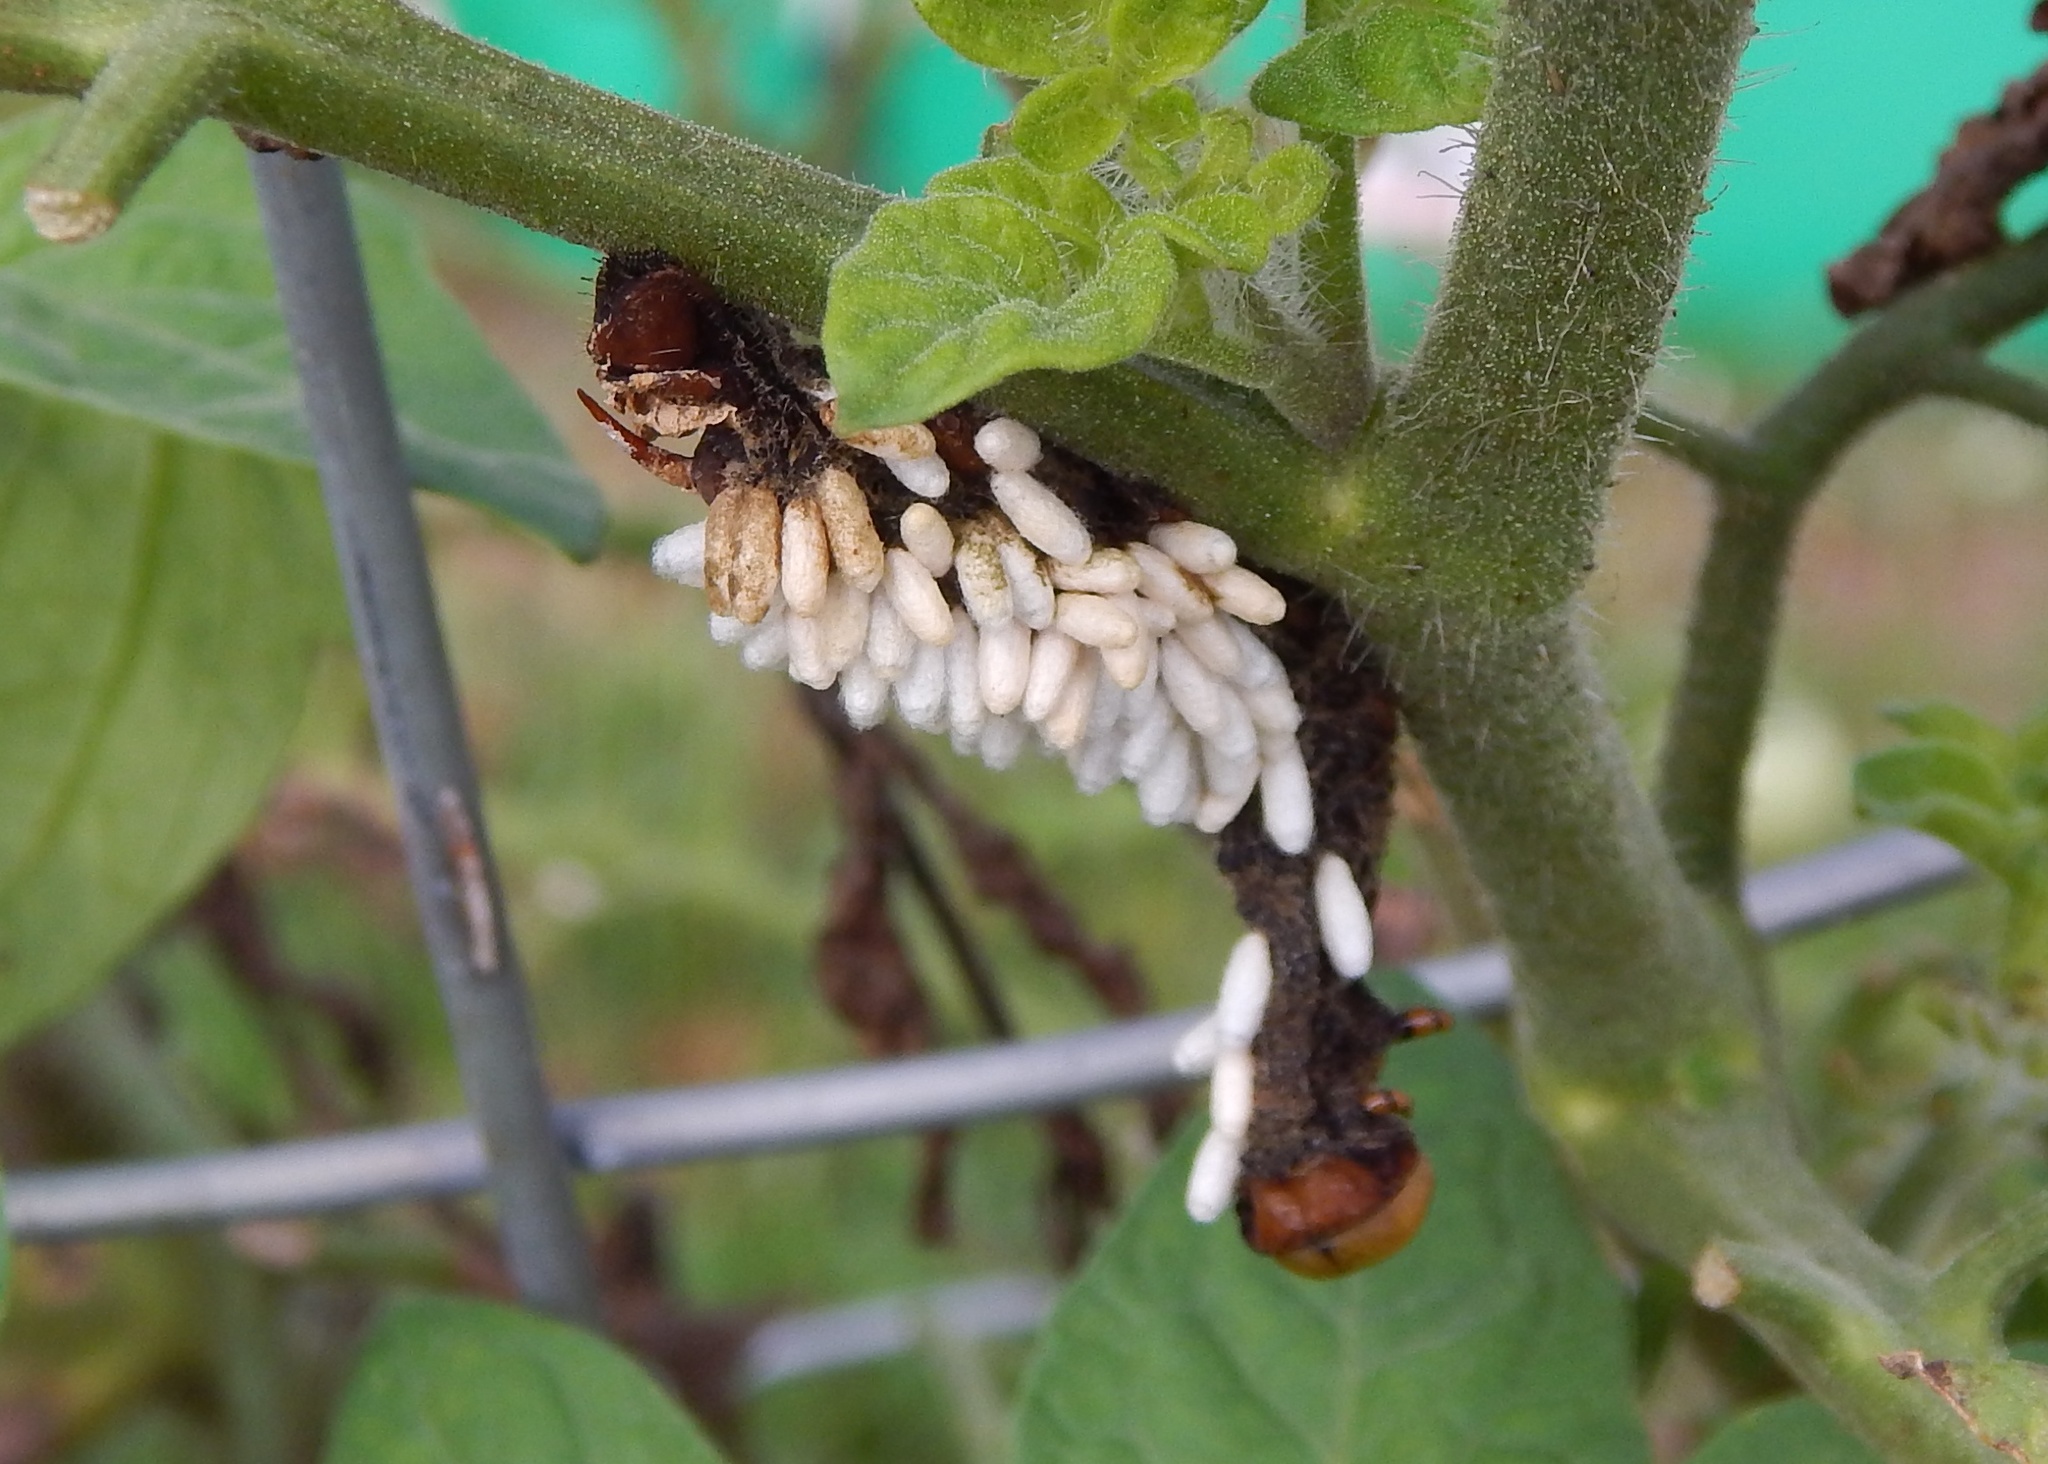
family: Polydnaviriformidae
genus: Bracoviriform
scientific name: Bracoviriform congregatae
